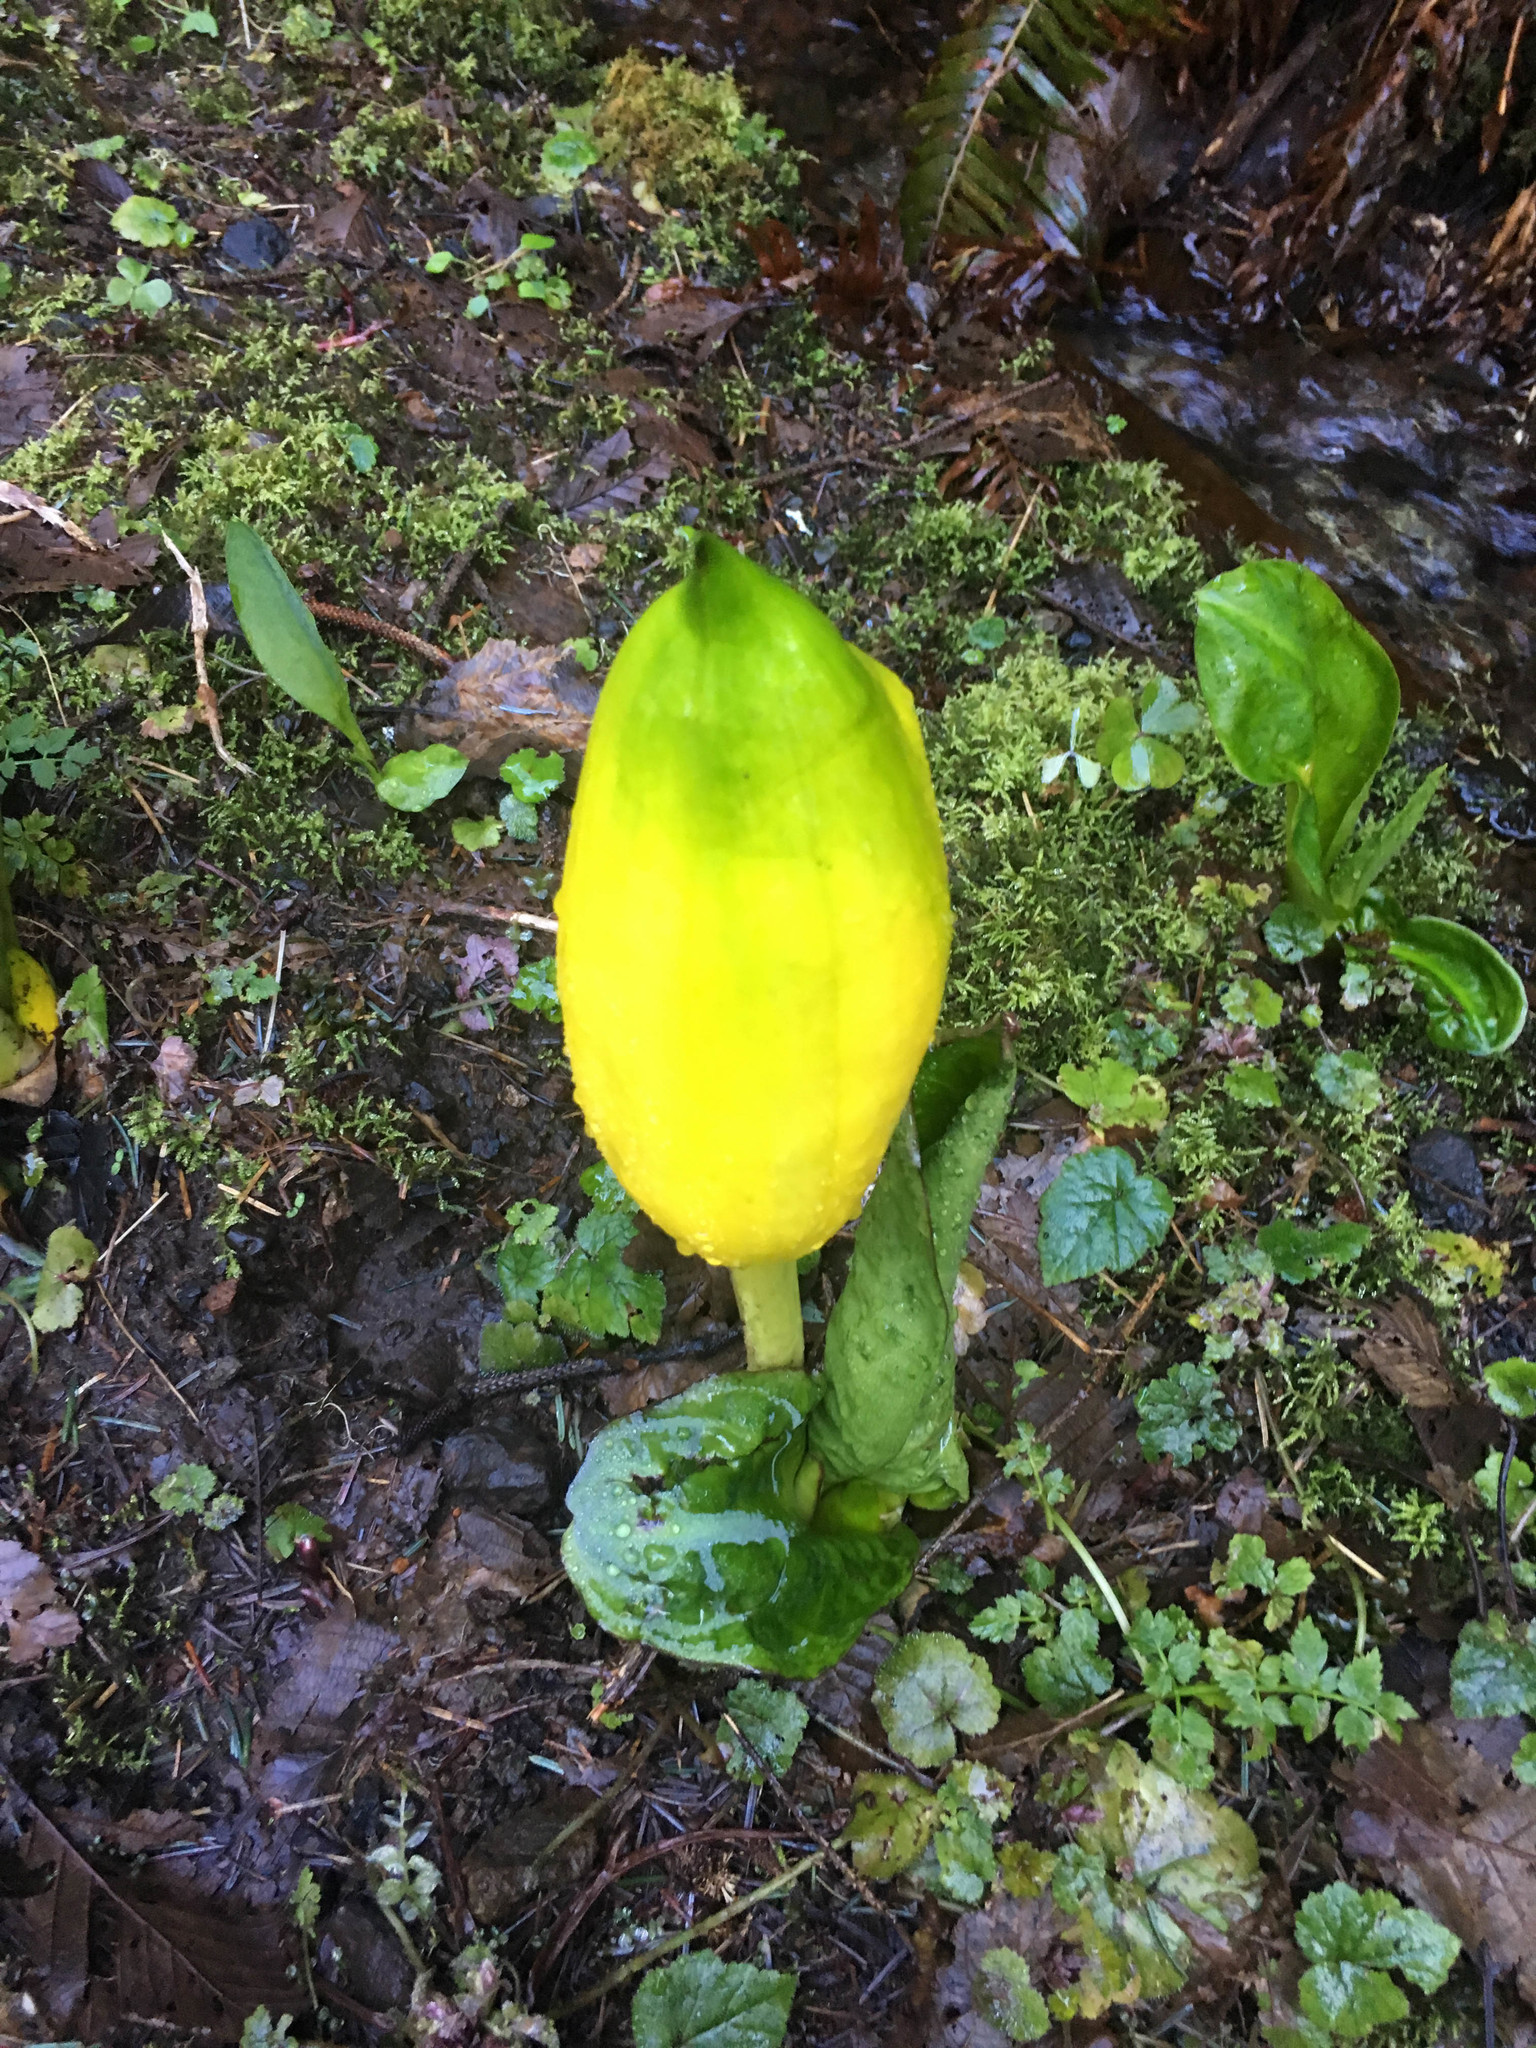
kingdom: Plantae
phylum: Tracheophyta
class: Liliopsida
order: Alismatales
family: Araceae
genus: Lysichiton
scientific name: Lysichiton americanus
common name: American skunk cabbage
